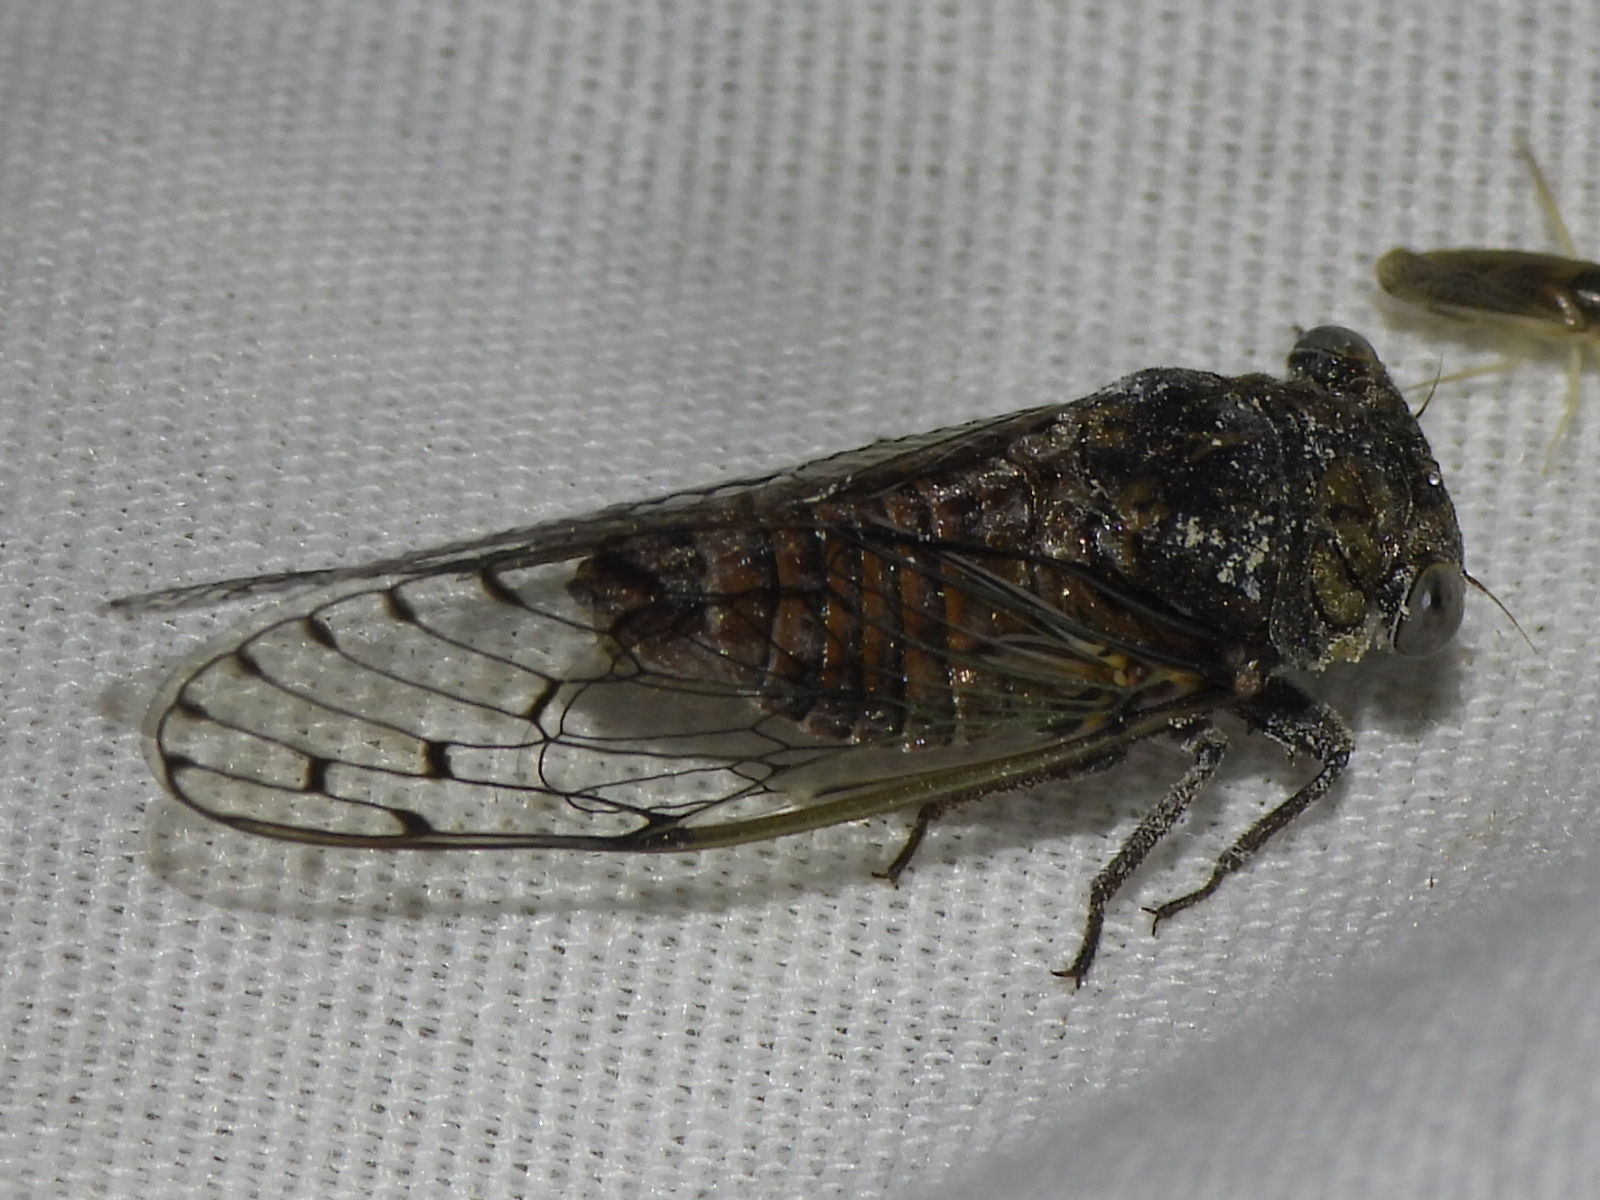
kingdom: Animalia
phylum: Arthropoda
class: Insecta
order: Hemiptera
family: Cicadidae
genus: Pacarina
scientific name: Pacarina puella
